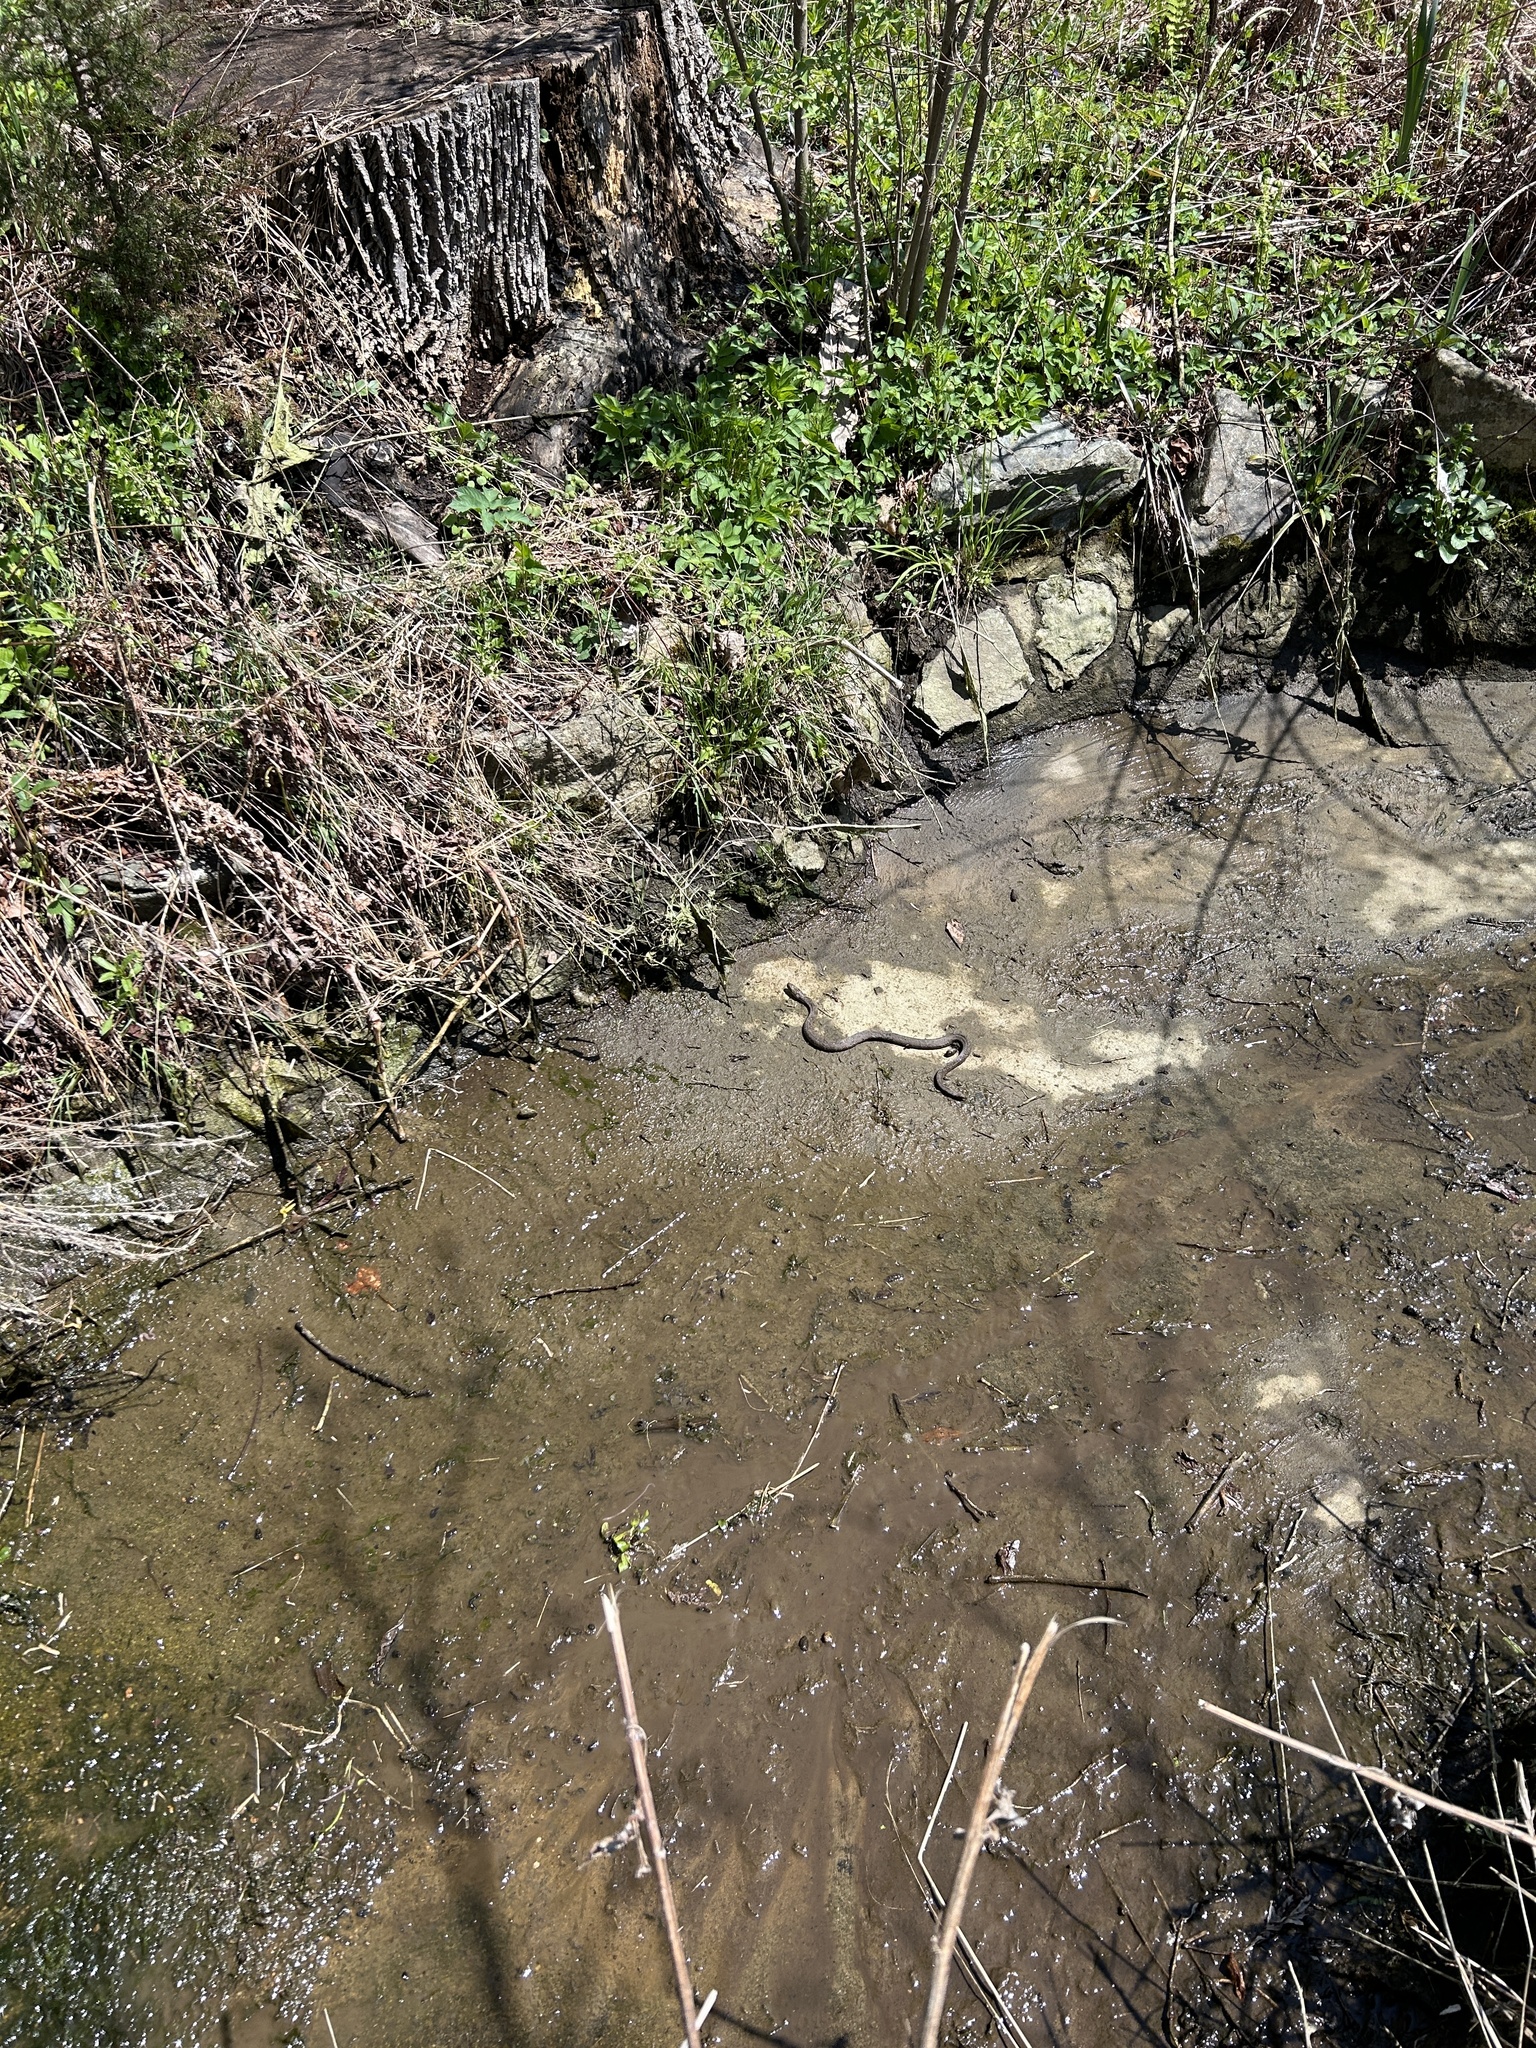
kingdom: Animalia
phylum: Chordata
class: Squamata
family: Colubridae
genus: Nerodia
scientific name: Nerodia sipedon
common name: Northern water snake
